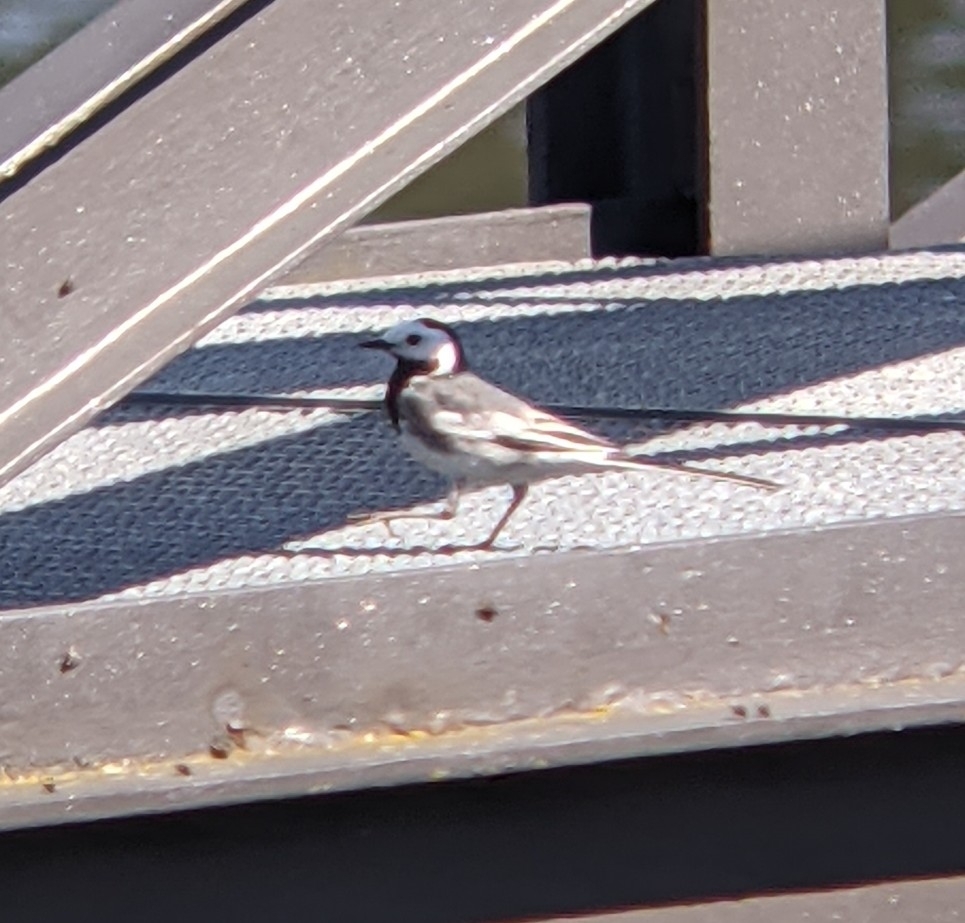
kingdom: Animalia
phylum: Chordata
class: Aves
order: Passeriformes
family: Motacillidae
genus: Motacilla
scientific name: Motacilla alba
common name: White wagtail
